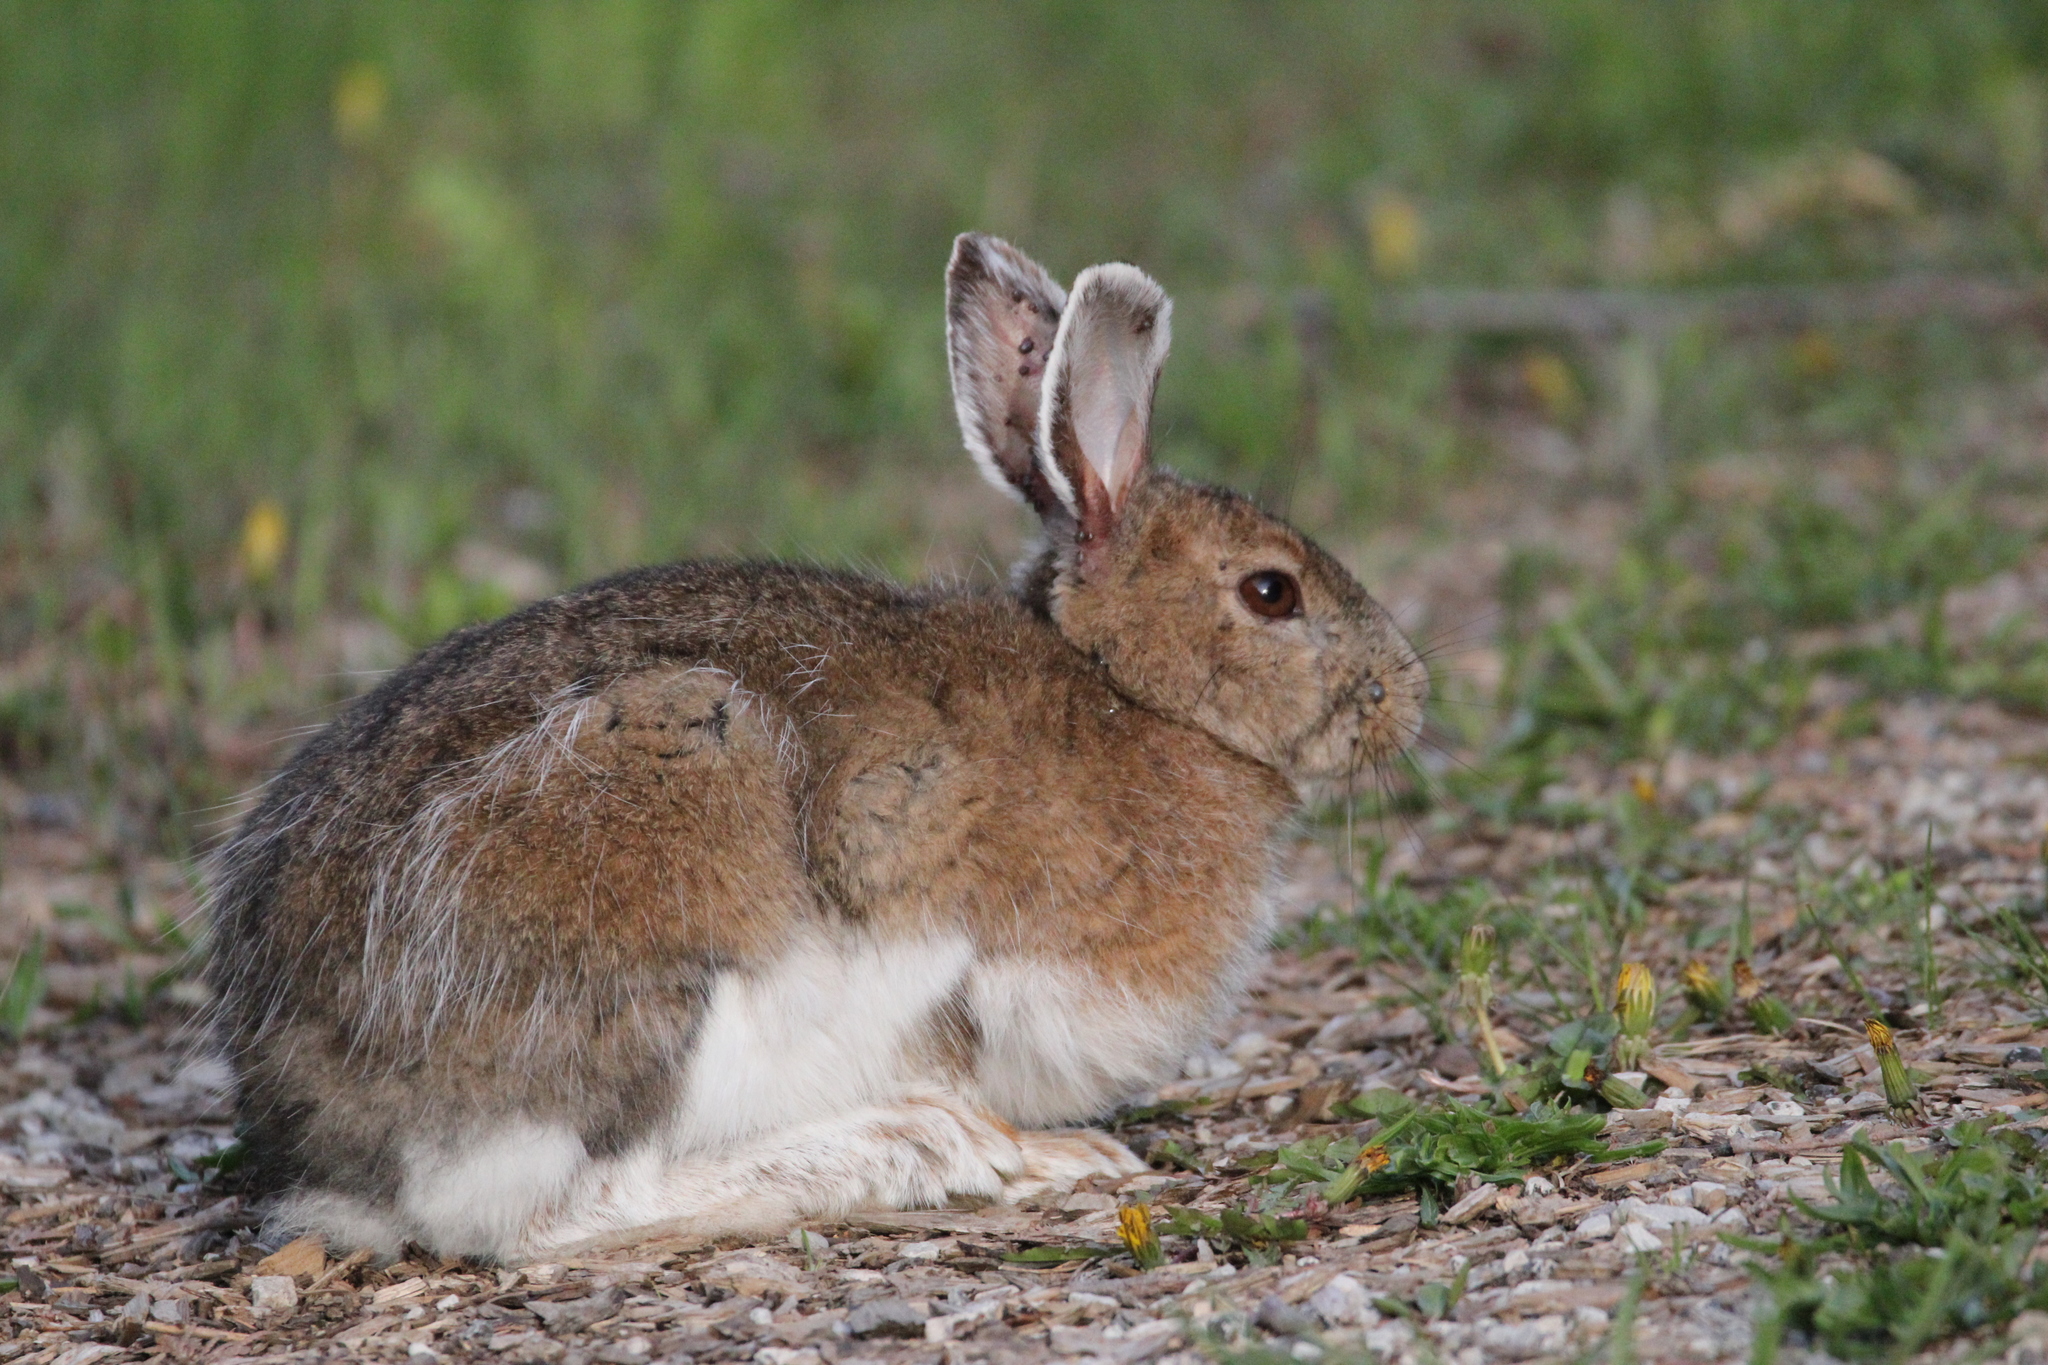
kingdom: Animalia
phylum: Chordata
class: Mammalia
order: Lagomorpha
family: Leporidae
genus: Lepus
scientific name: Lepus americanus
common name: Snowshoe hare
